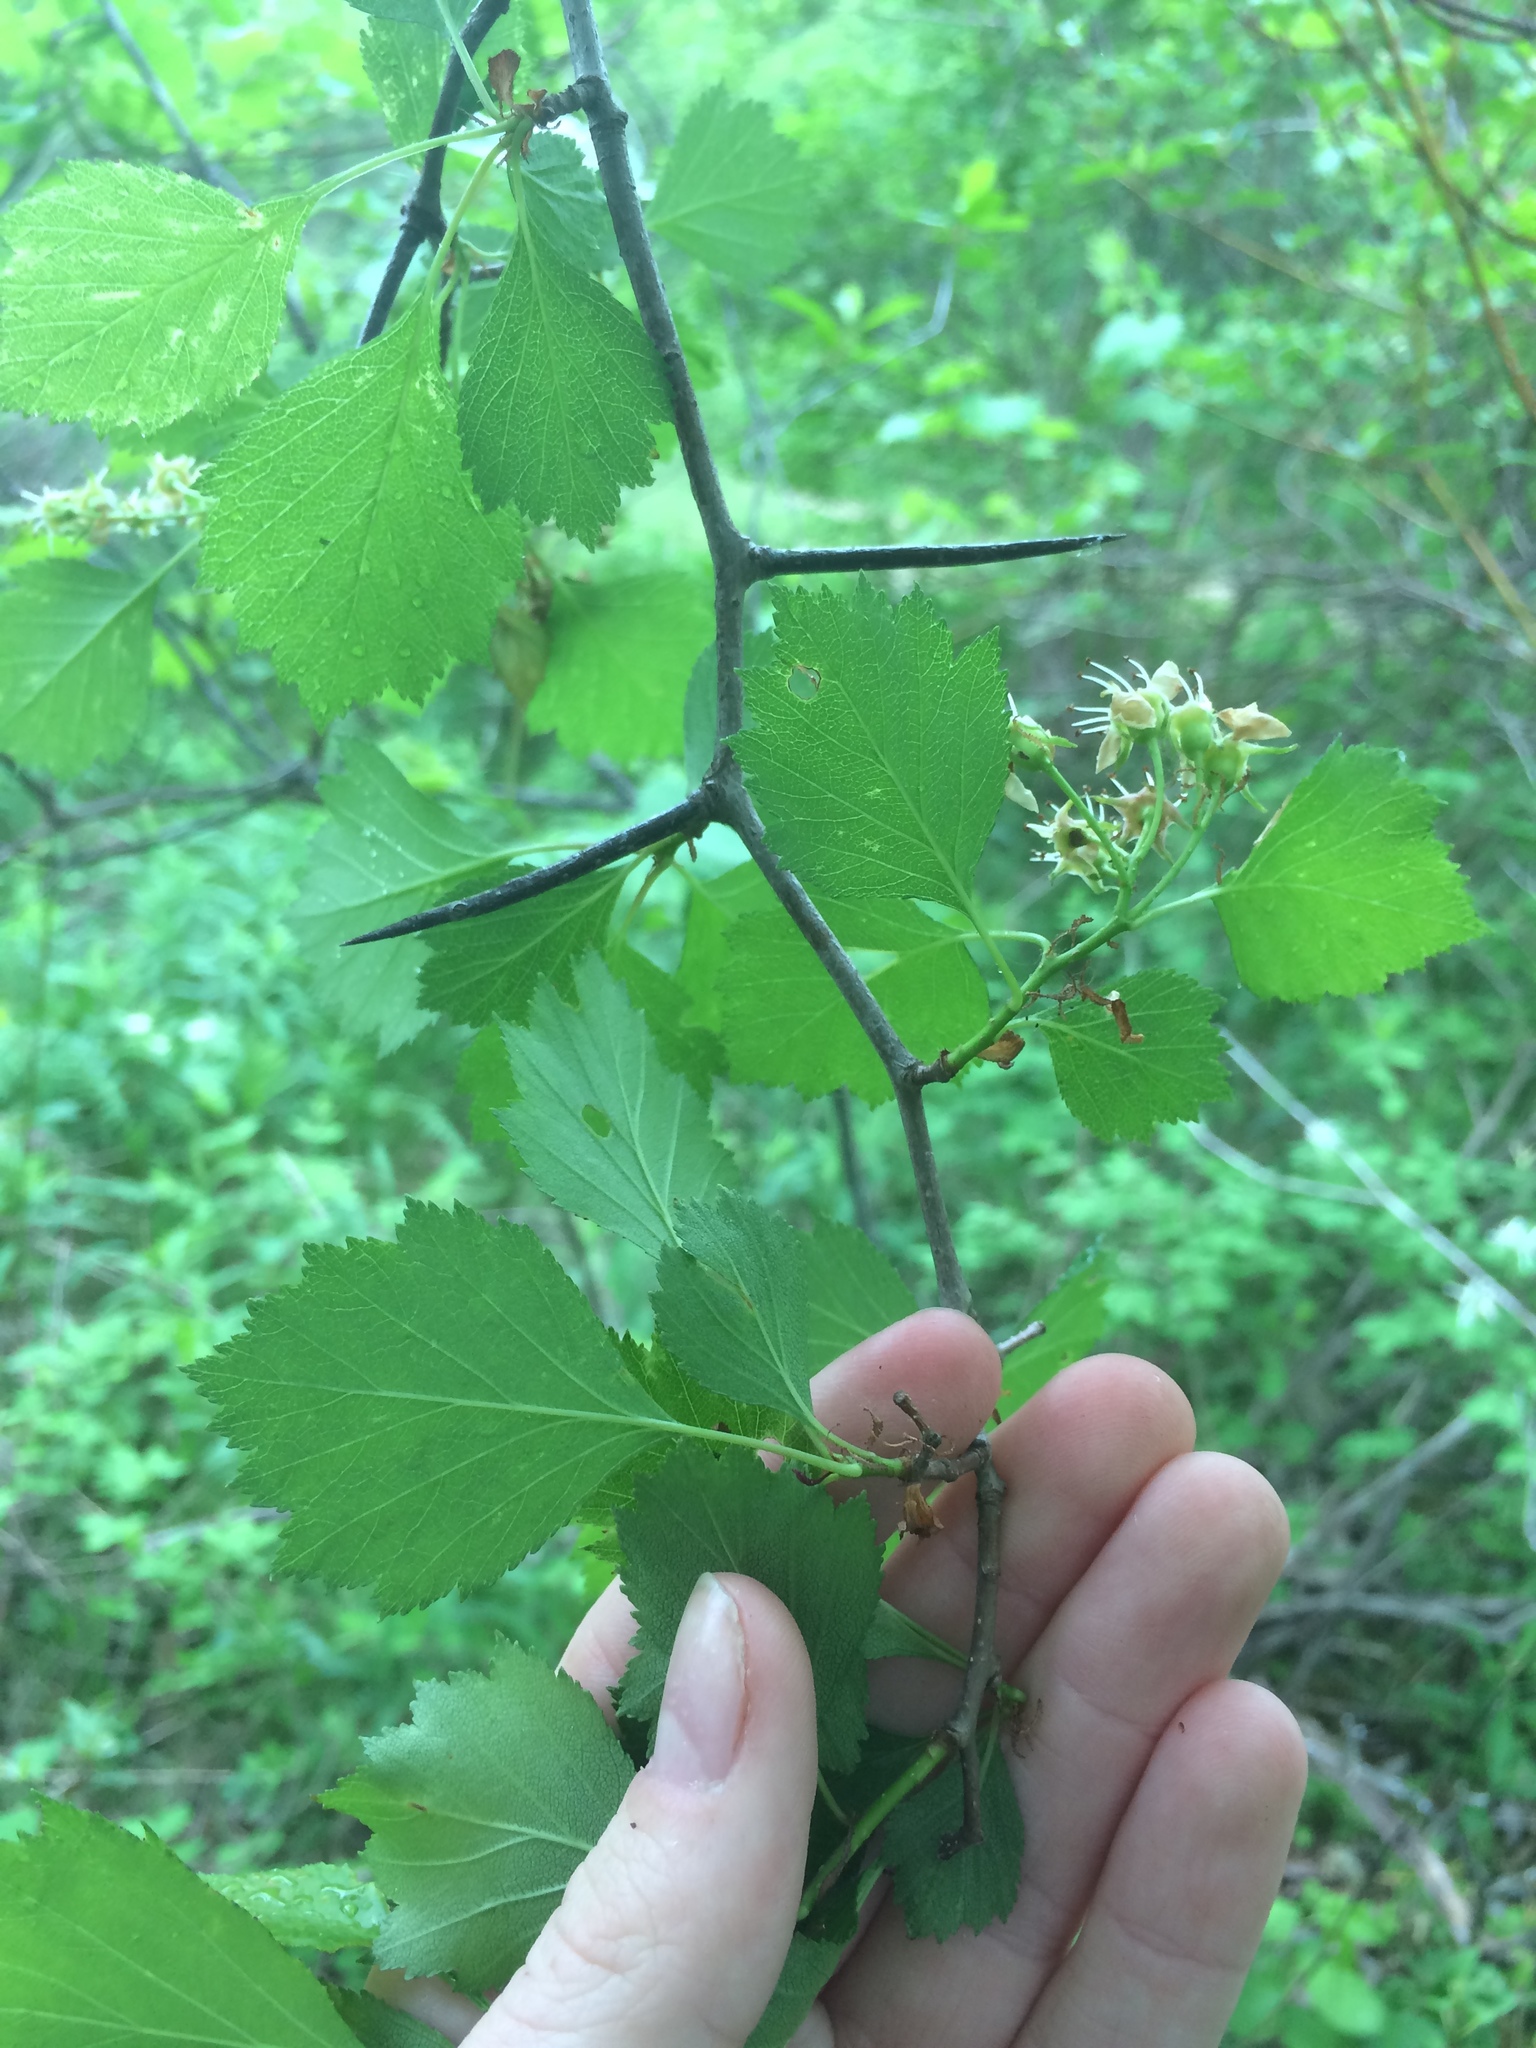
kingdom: Plantae
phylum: Tracheophyta
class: Magnoliopsida
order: Rosales
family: Rosaceae
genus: Crataegus
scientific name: Crataegus chrysocarpa
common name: Fire-berry hawthorn
